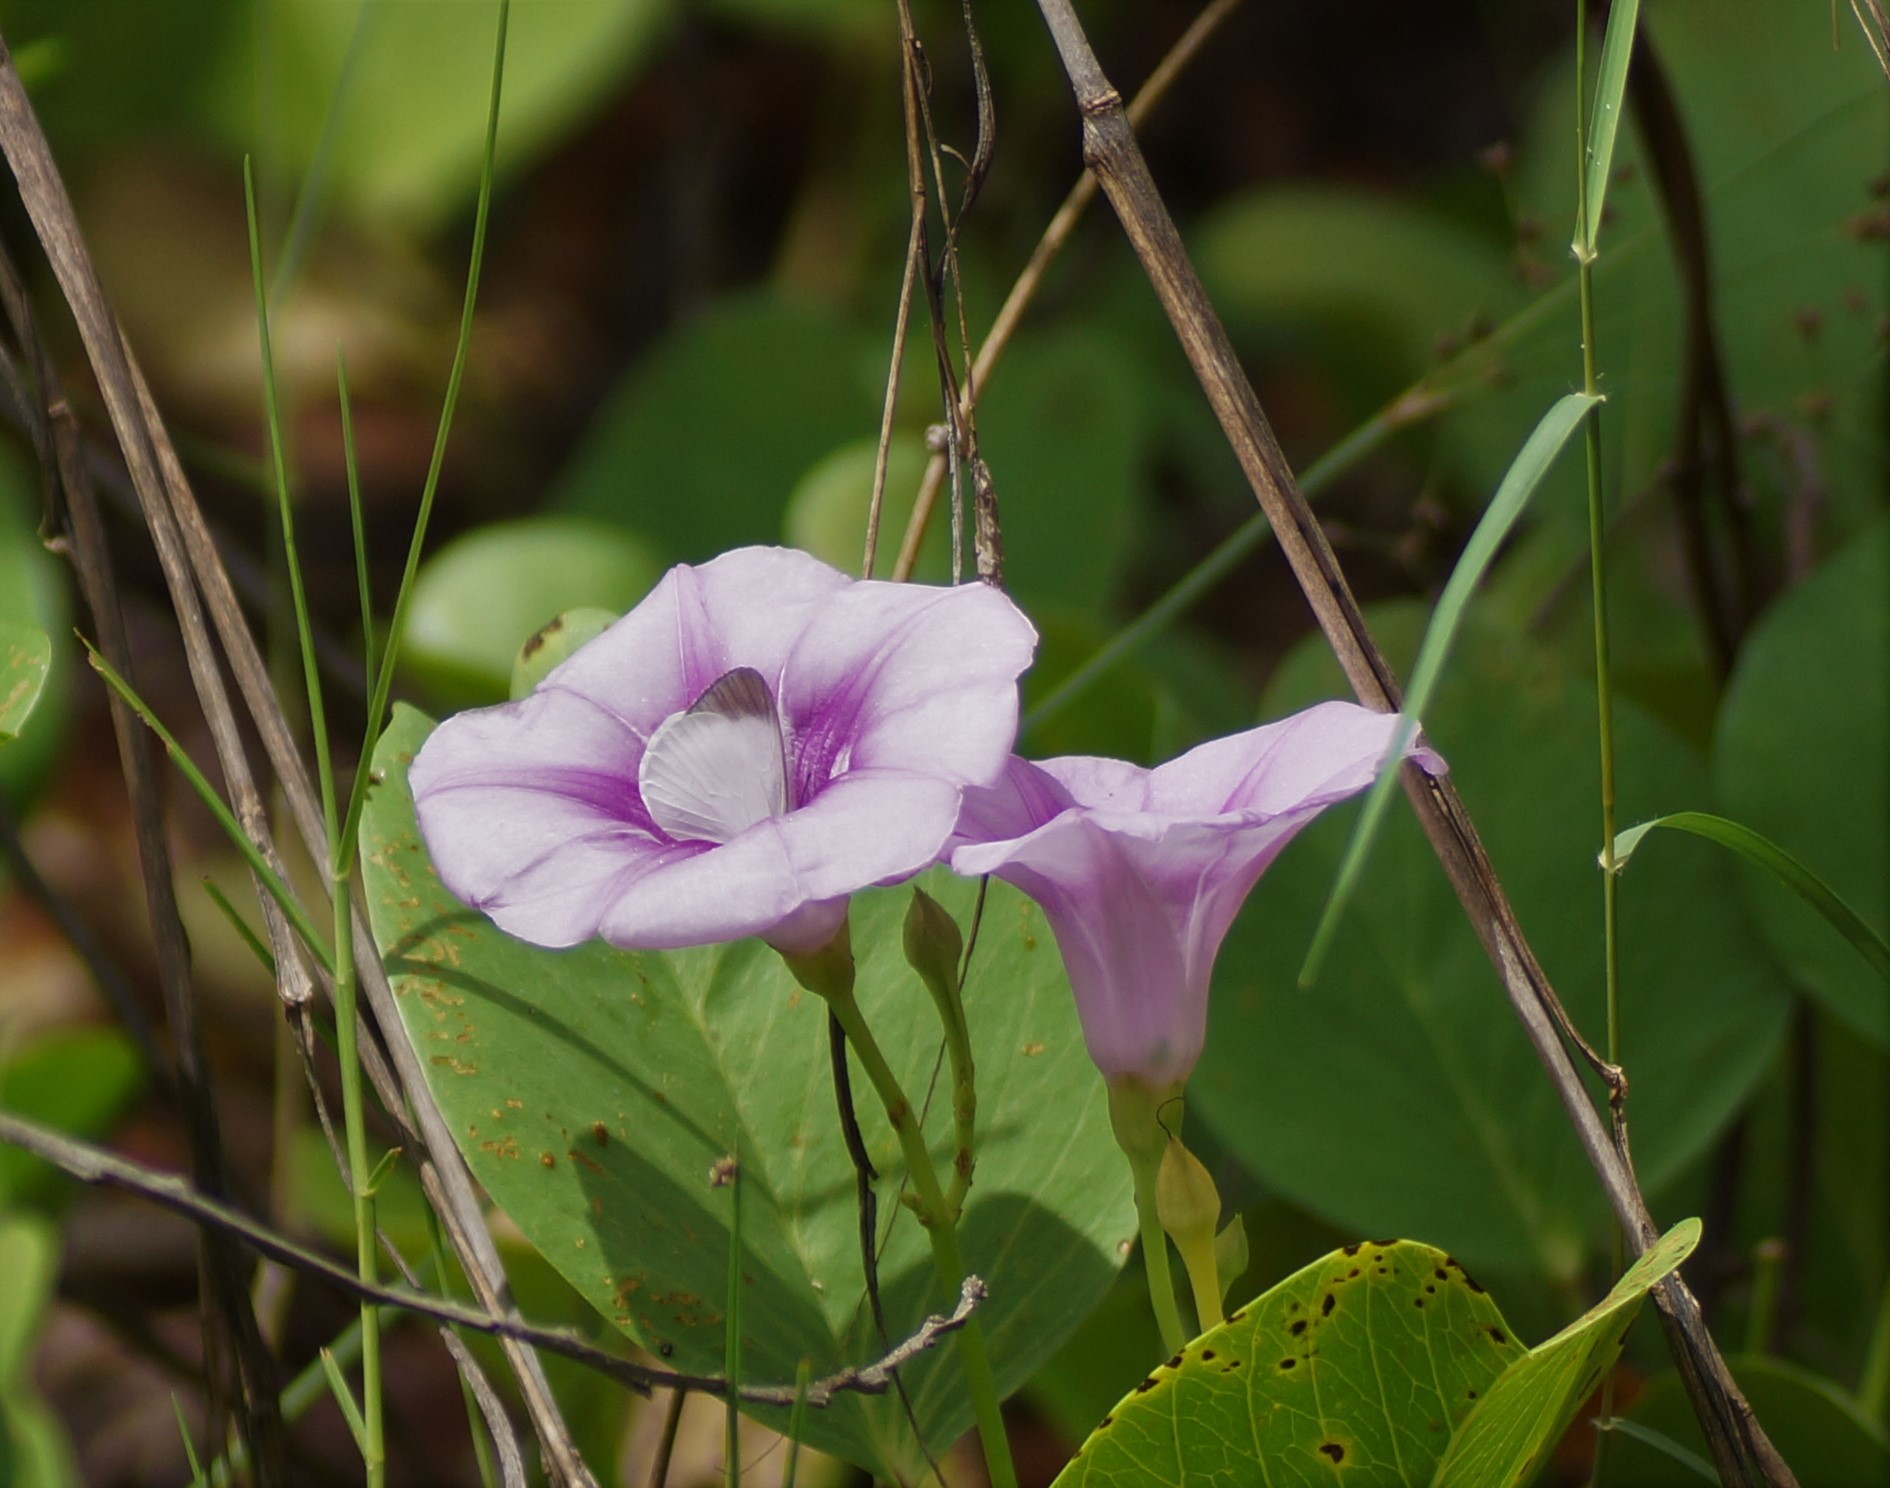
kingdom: Animalia
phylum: Arthropoda
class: Insecta
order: Lepidoptera
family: Pieridae
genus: Elodina
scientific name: Elodina walkeri
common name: Small pearl-white
